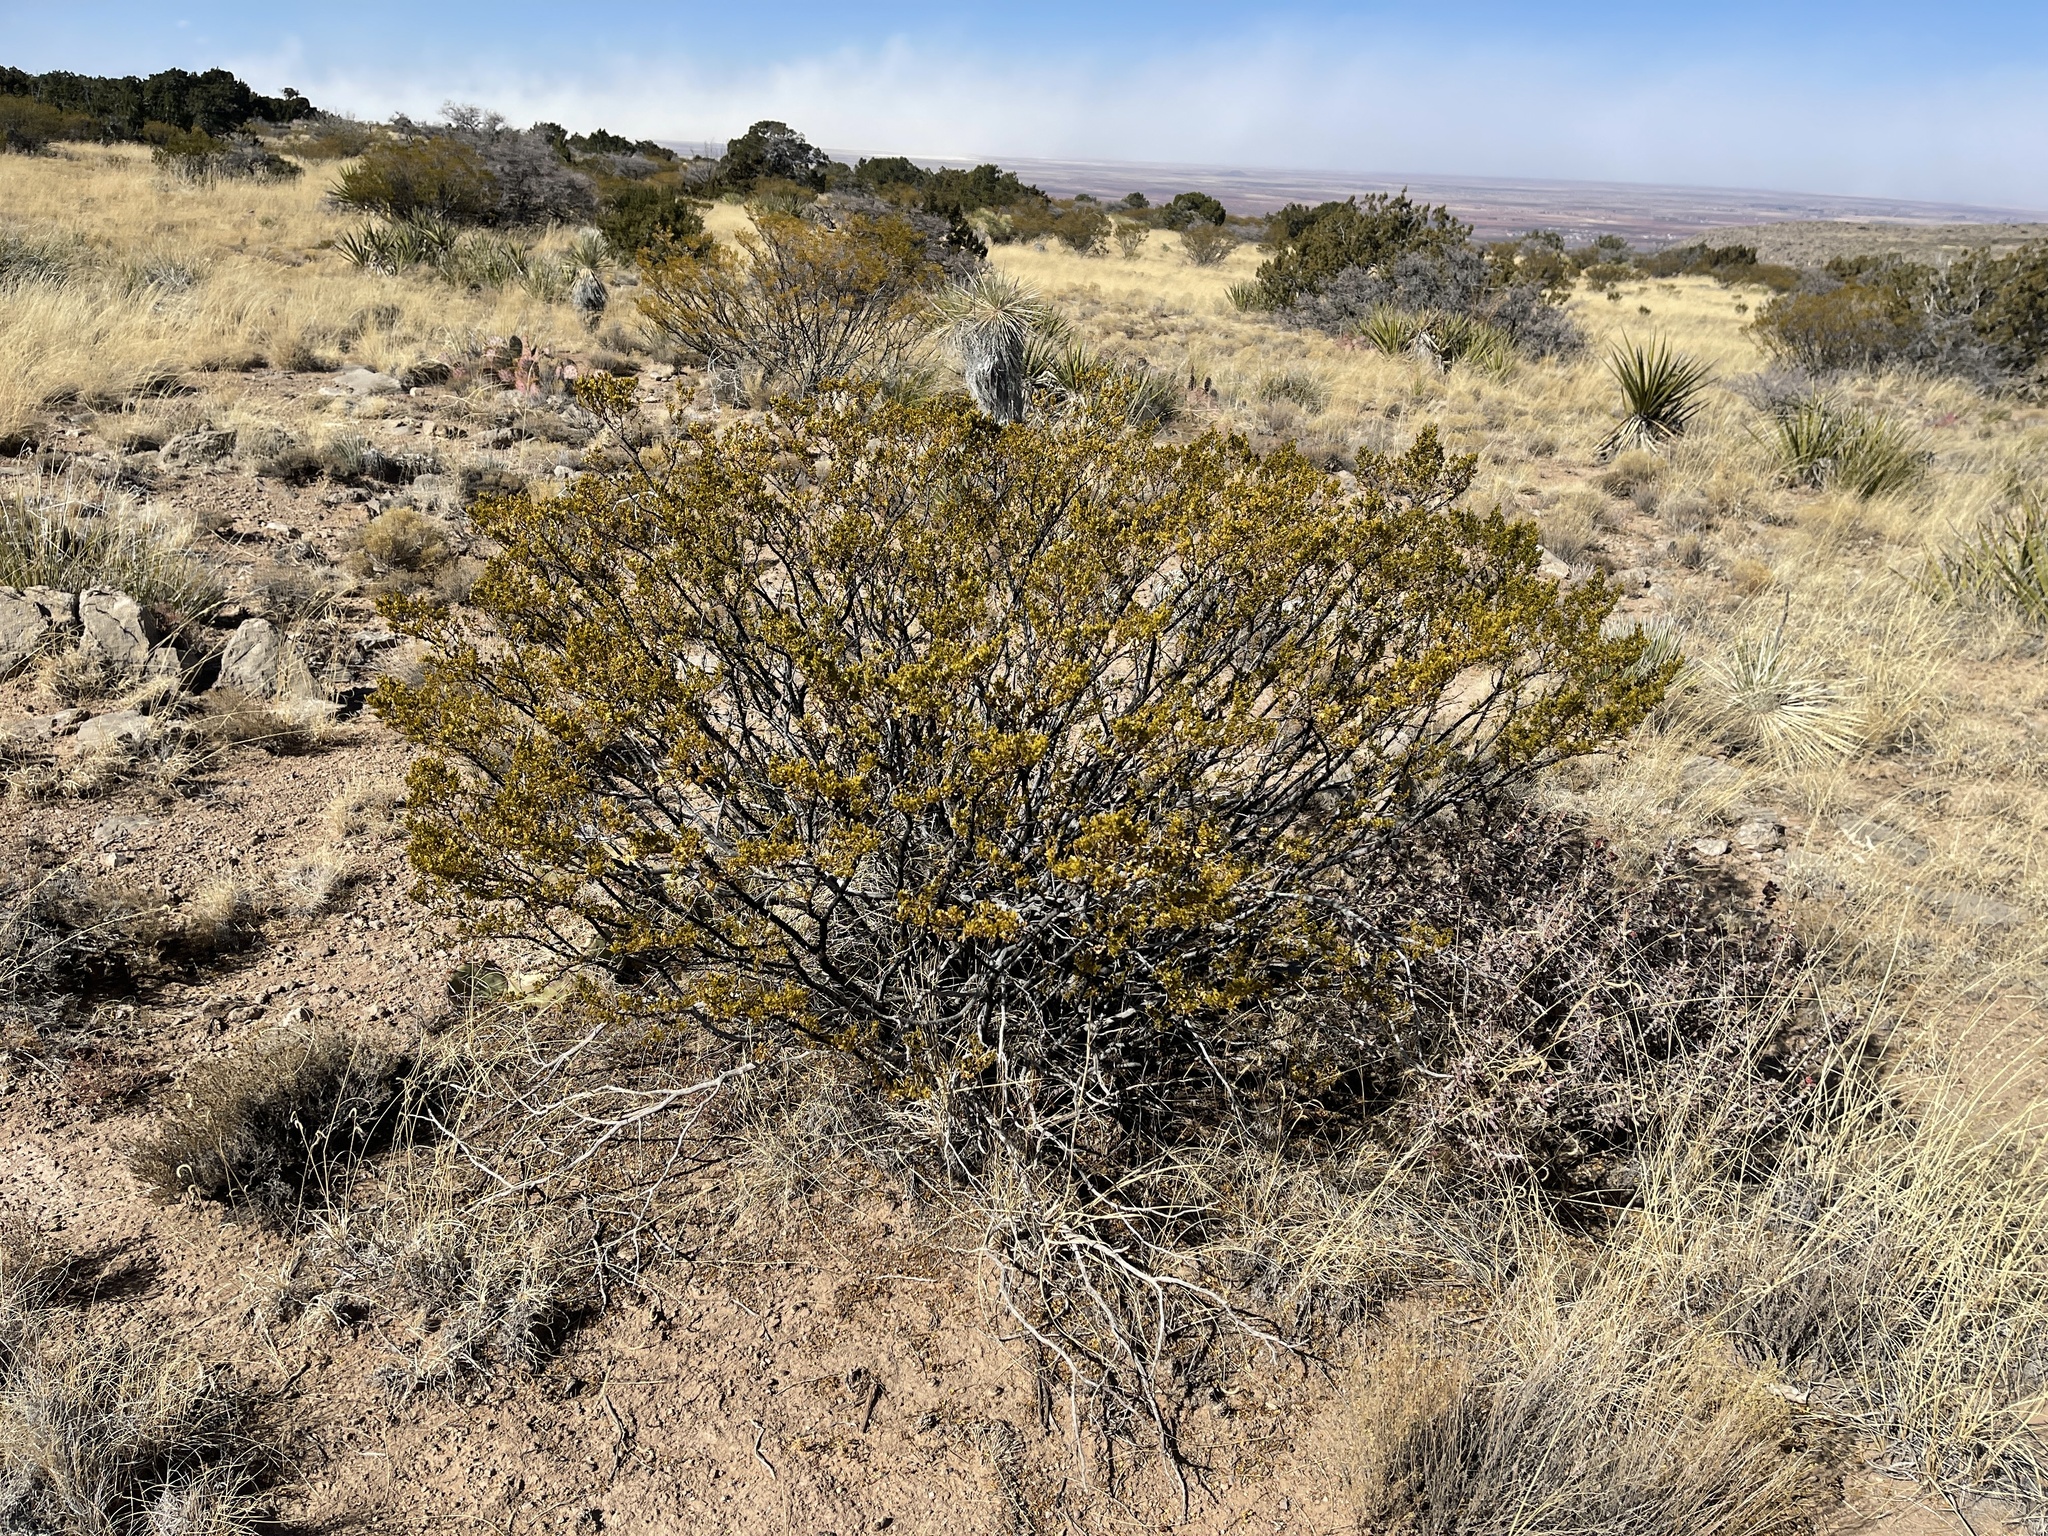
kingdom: Plantae
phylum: Tracheophyta
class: Magnoliopsida
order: Zygophyllales
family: Zygophyllaceae
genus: Larrea
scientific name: Larrea tridentata
